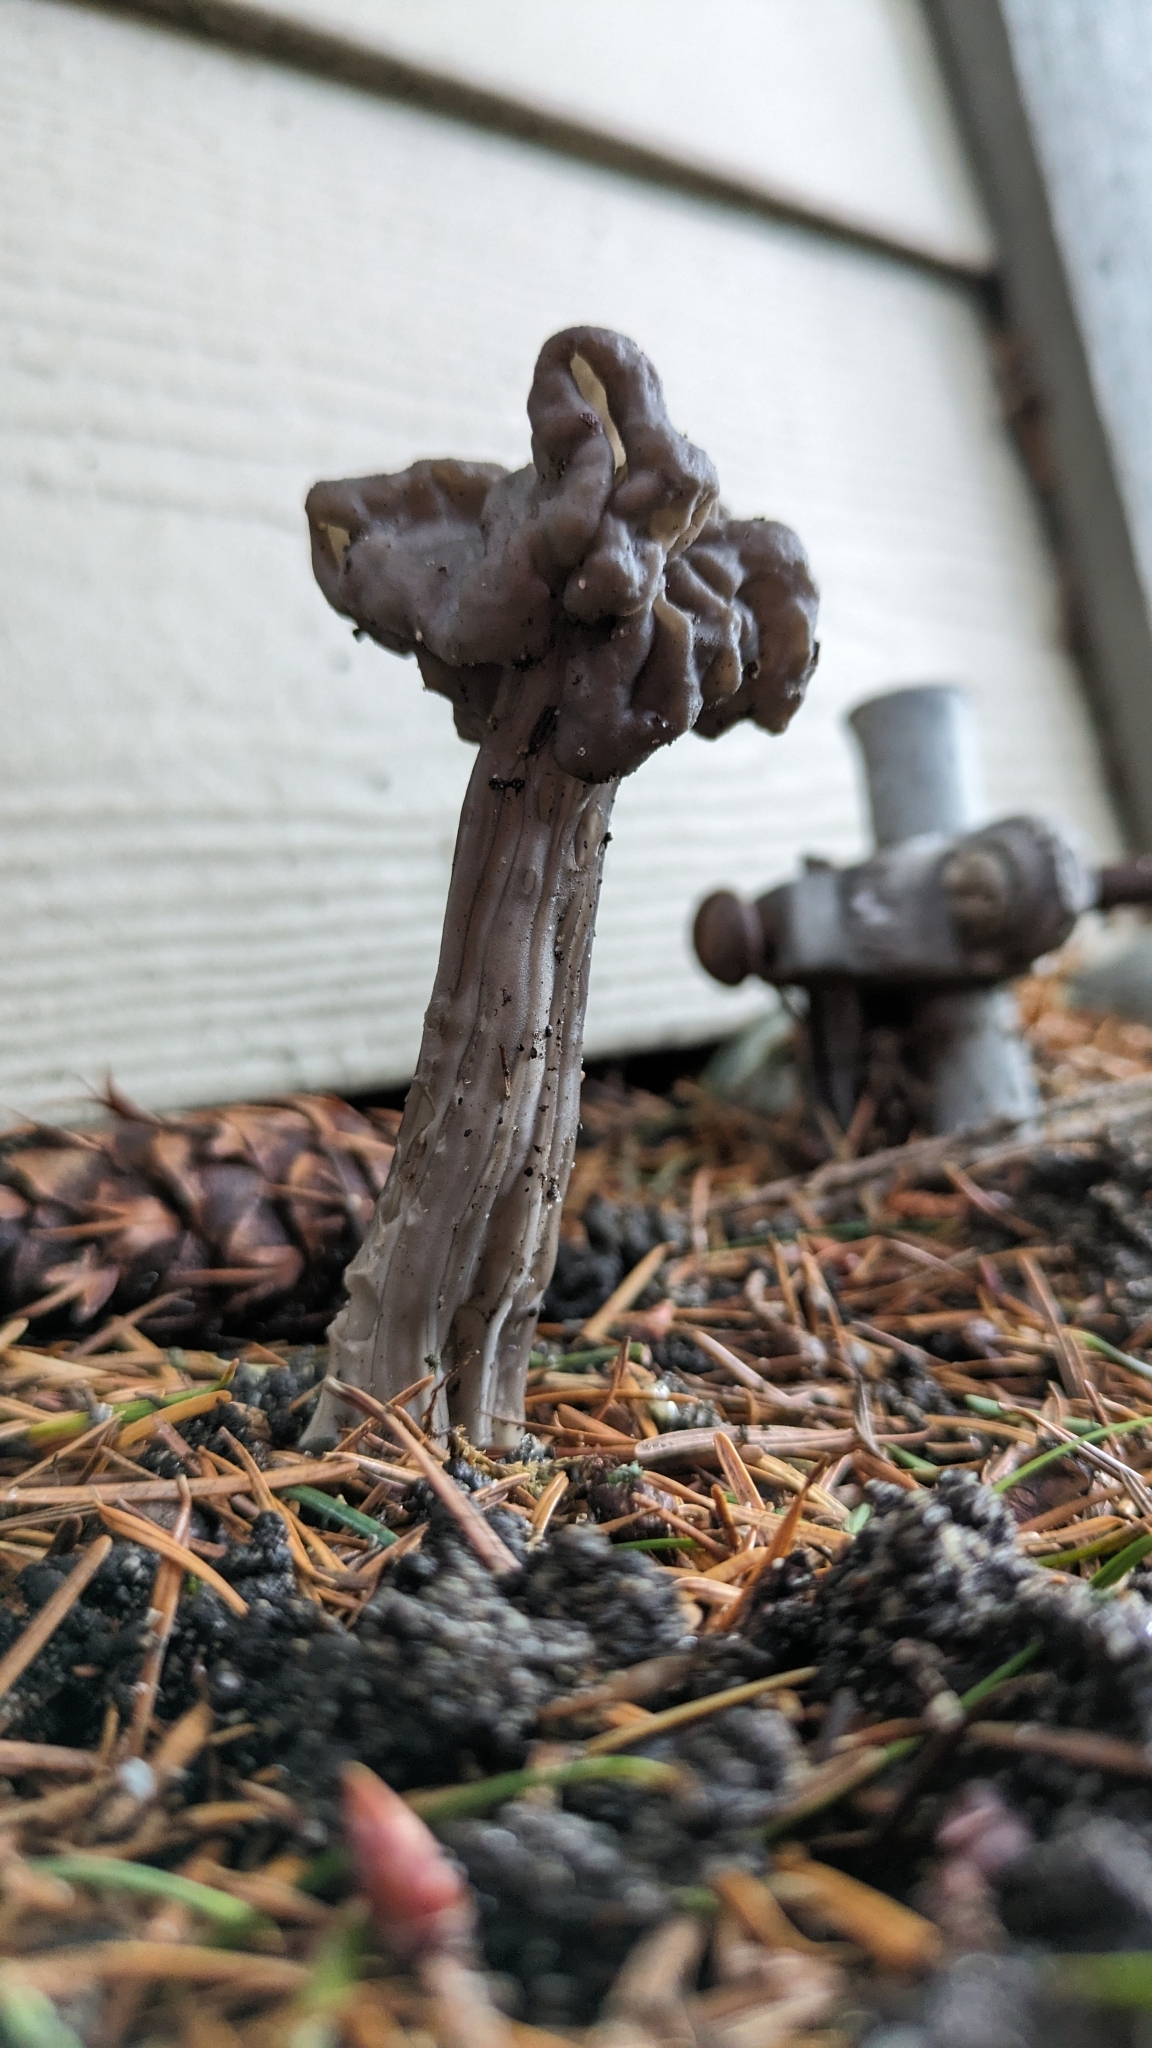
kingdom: Fungi
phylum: Ascomycota
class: Pezizomycetes
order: Pezizales
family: Helvellaceae
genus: Helvella
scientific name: Helvella vespertina
